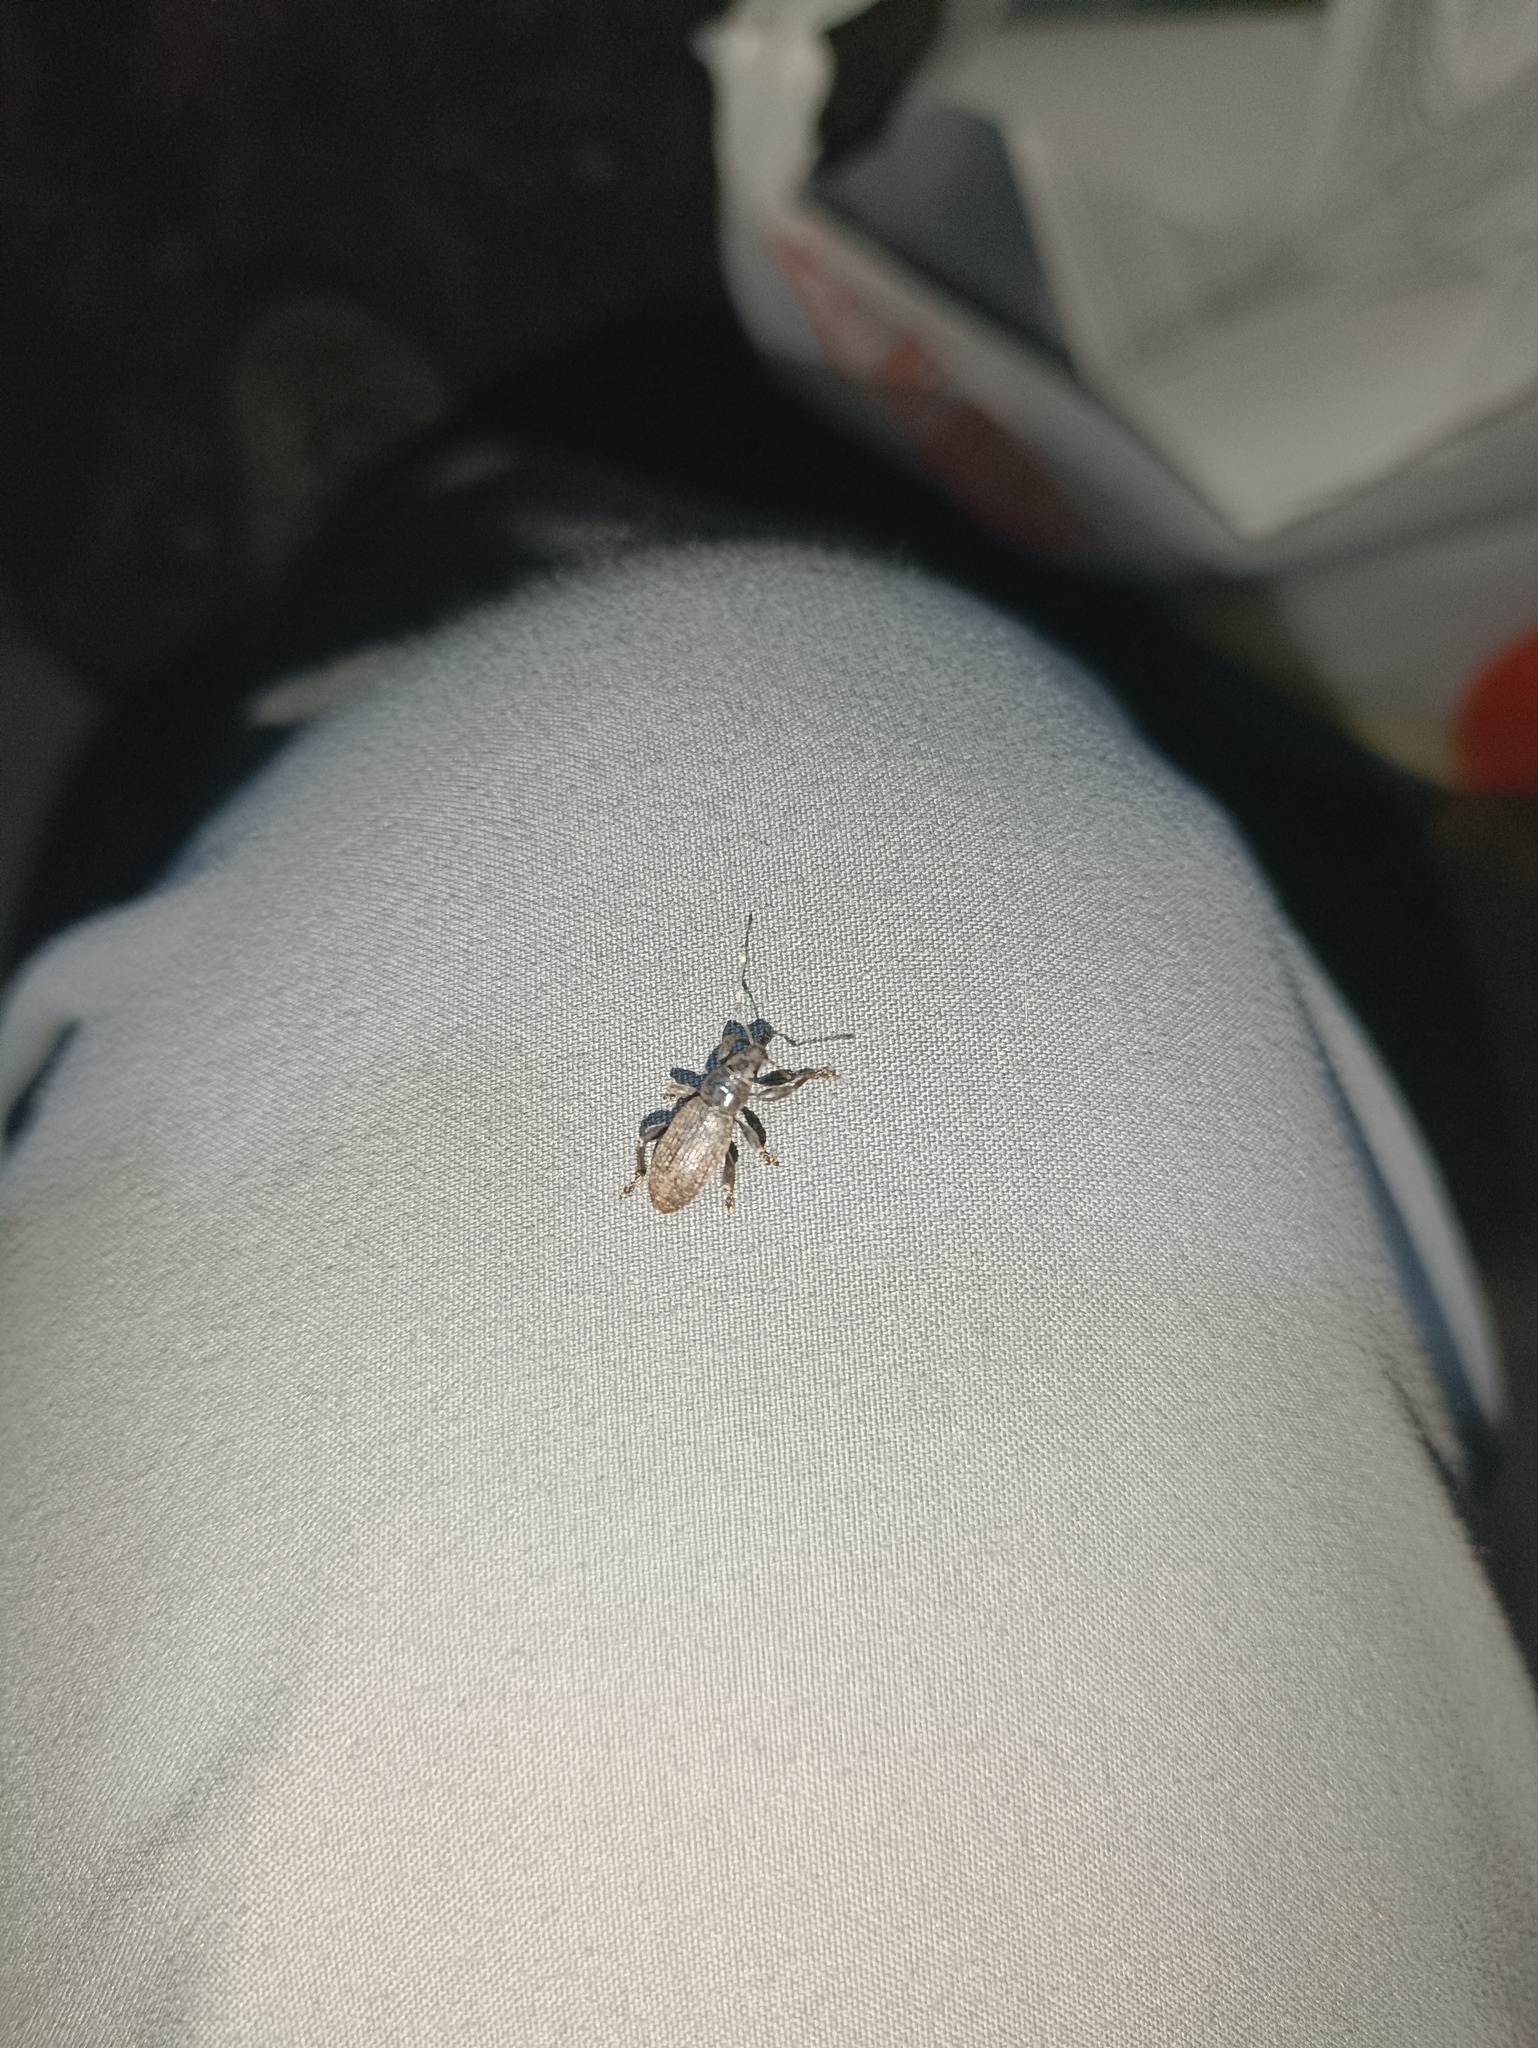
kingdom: Animalia
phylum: Arthropoda
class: Insecta
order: Coleoptera
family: Curculionidae
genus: Brachyderes
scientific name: Brachyderes incanus
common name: Weevil
